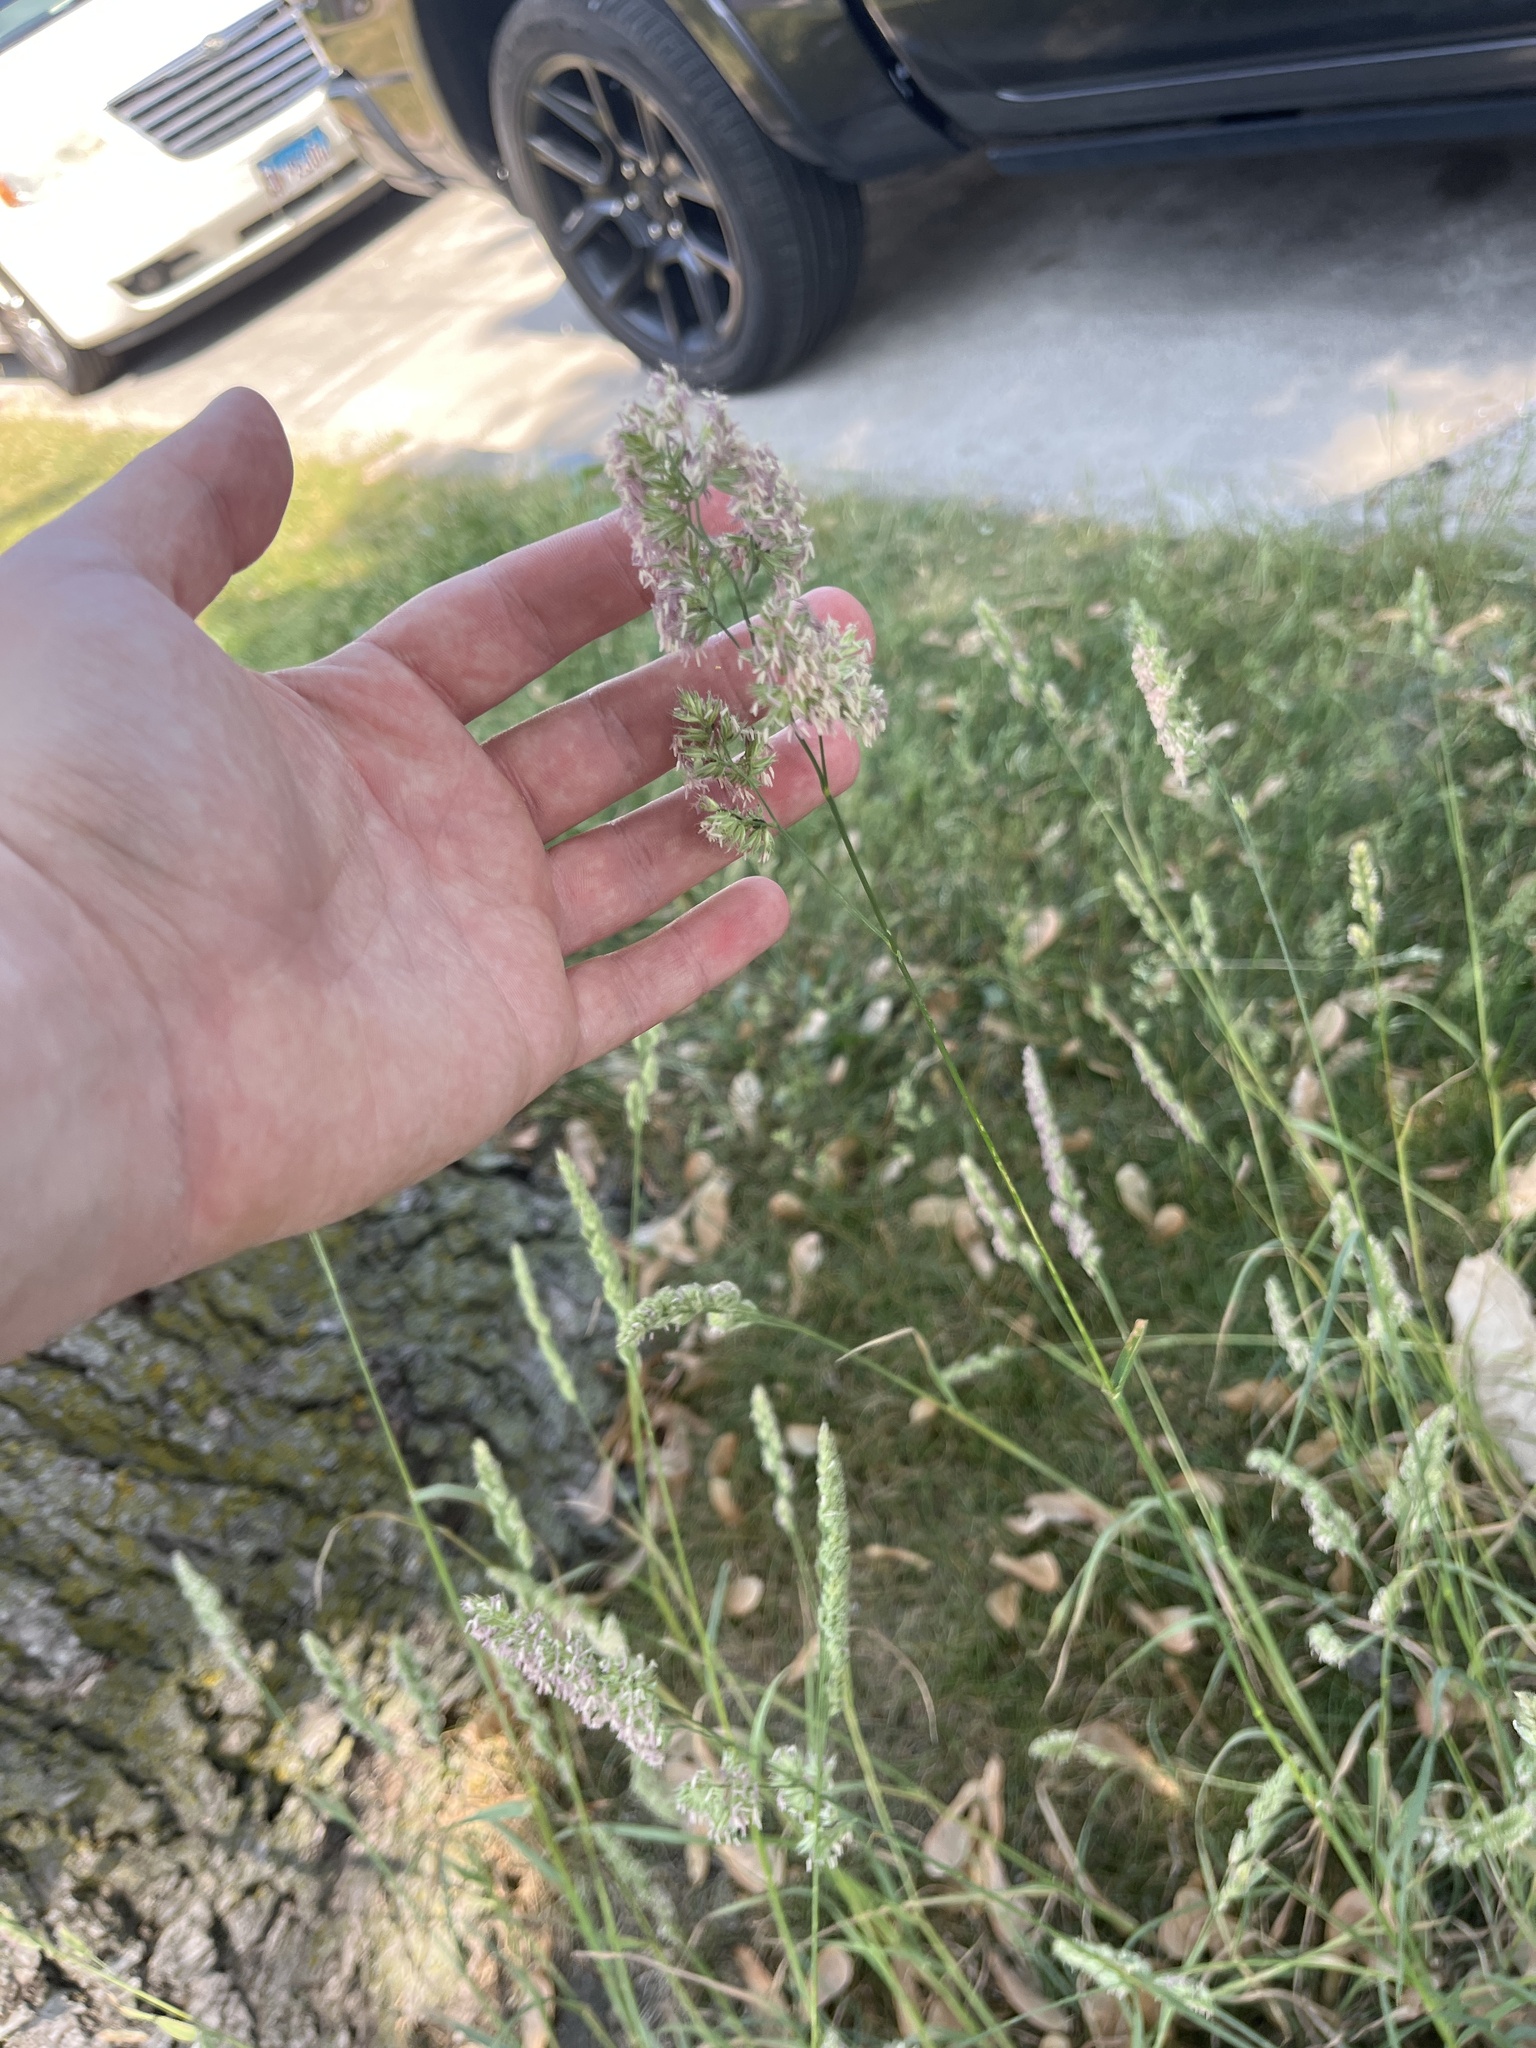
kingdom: Plantae
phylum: Tracheophyta
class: Liliopsida
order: Poales
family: Poaceae
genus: Dactylis
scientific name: Dactylis glomerata
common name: Orchardgrass
